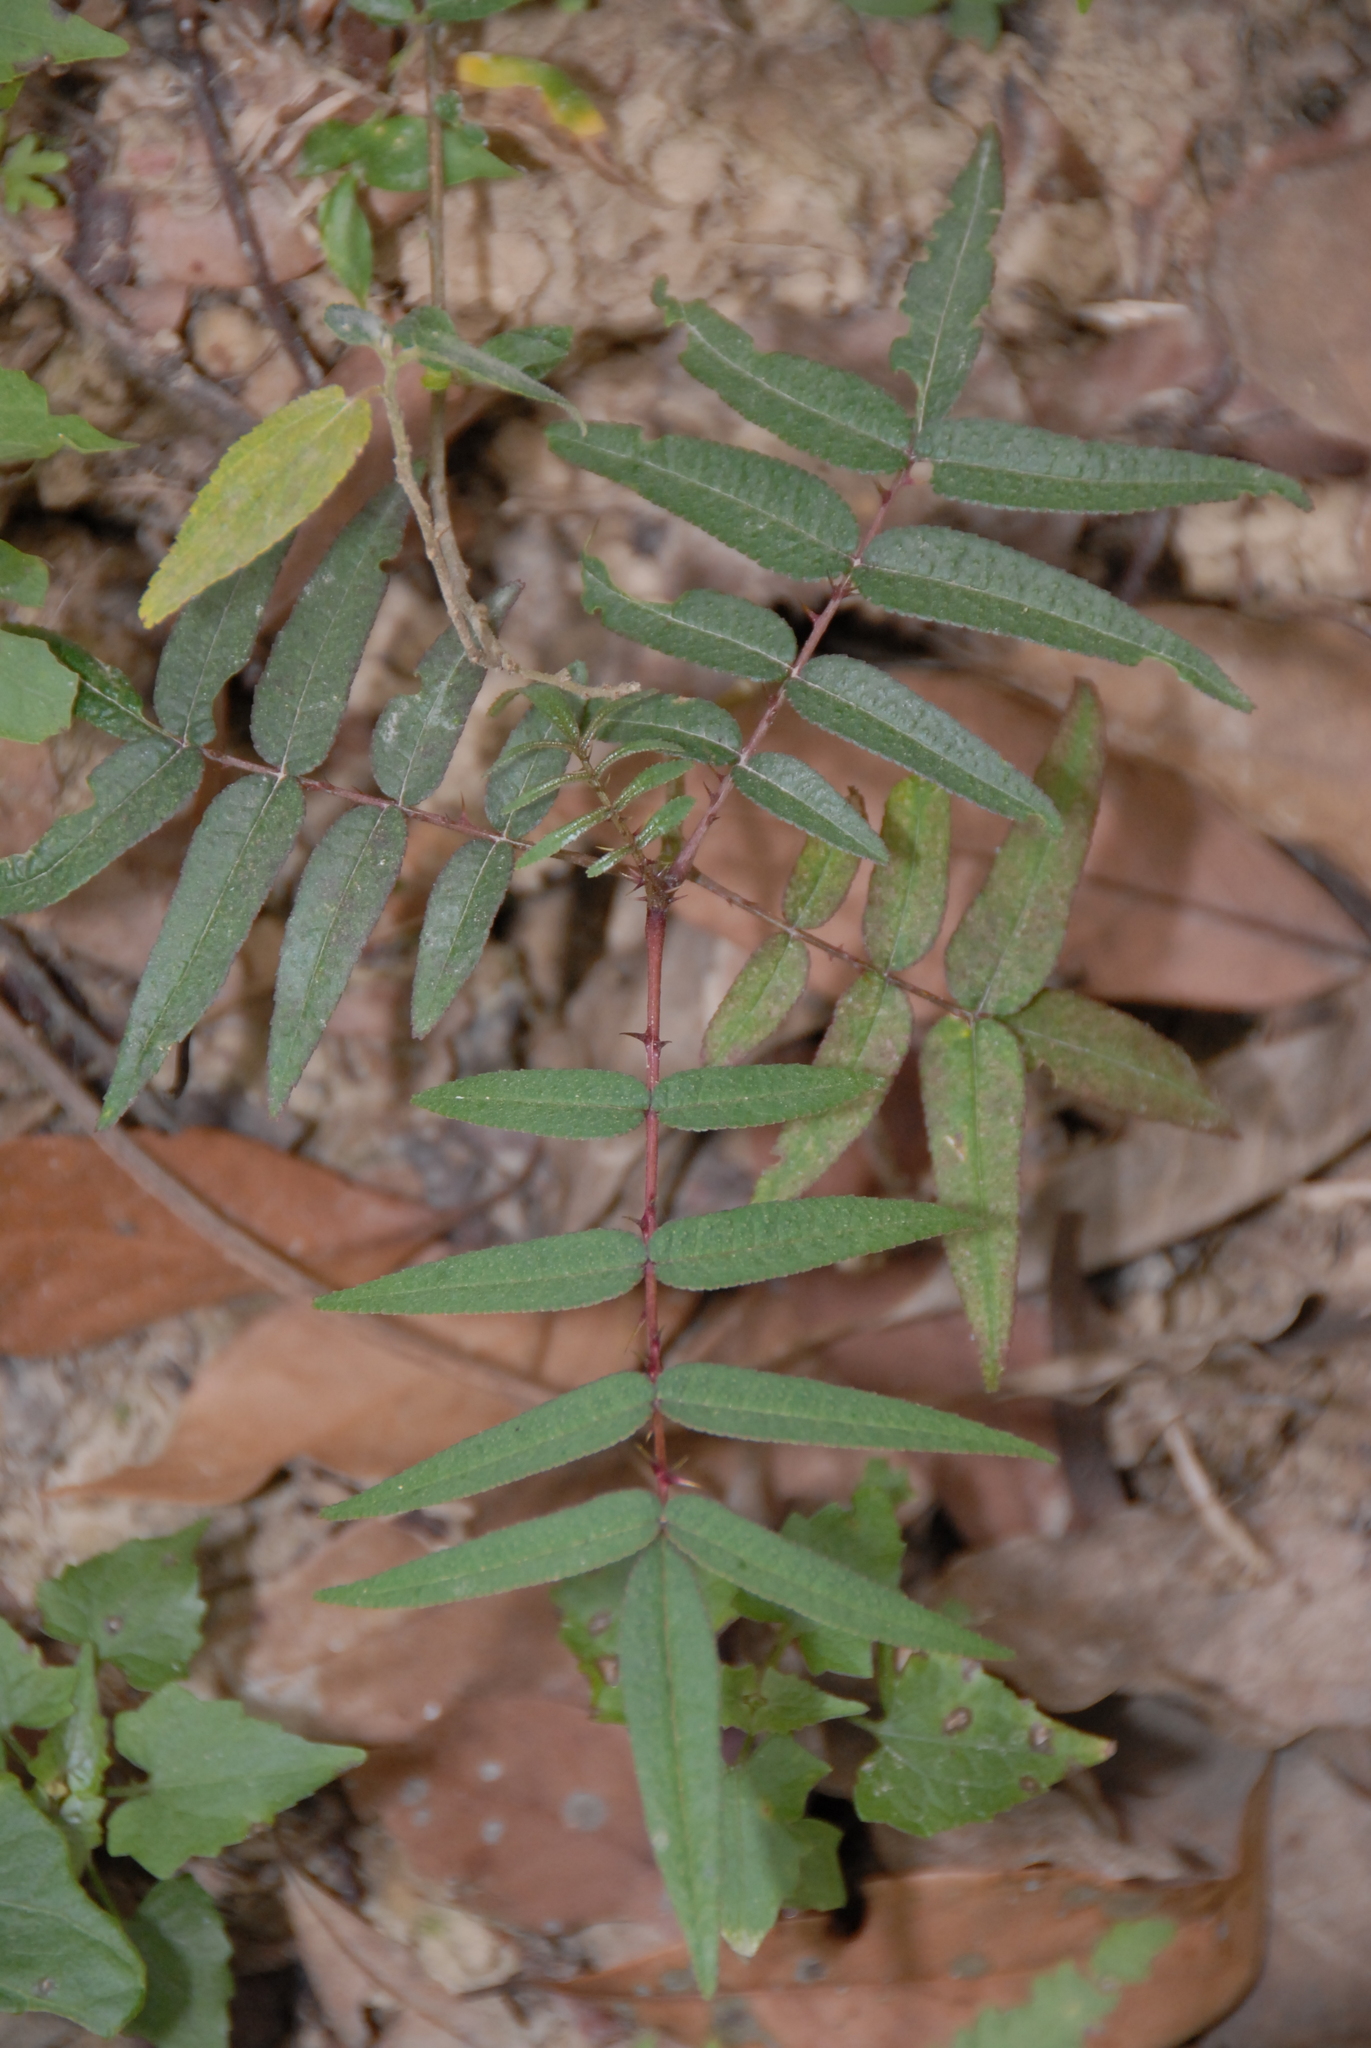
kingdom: Plantae
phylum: Tracheophyta
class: Magnoliopsida
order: Sapindales
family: Rutaceae
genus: Zanthoxylum
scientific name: Zanthoxylum ailanthoides
